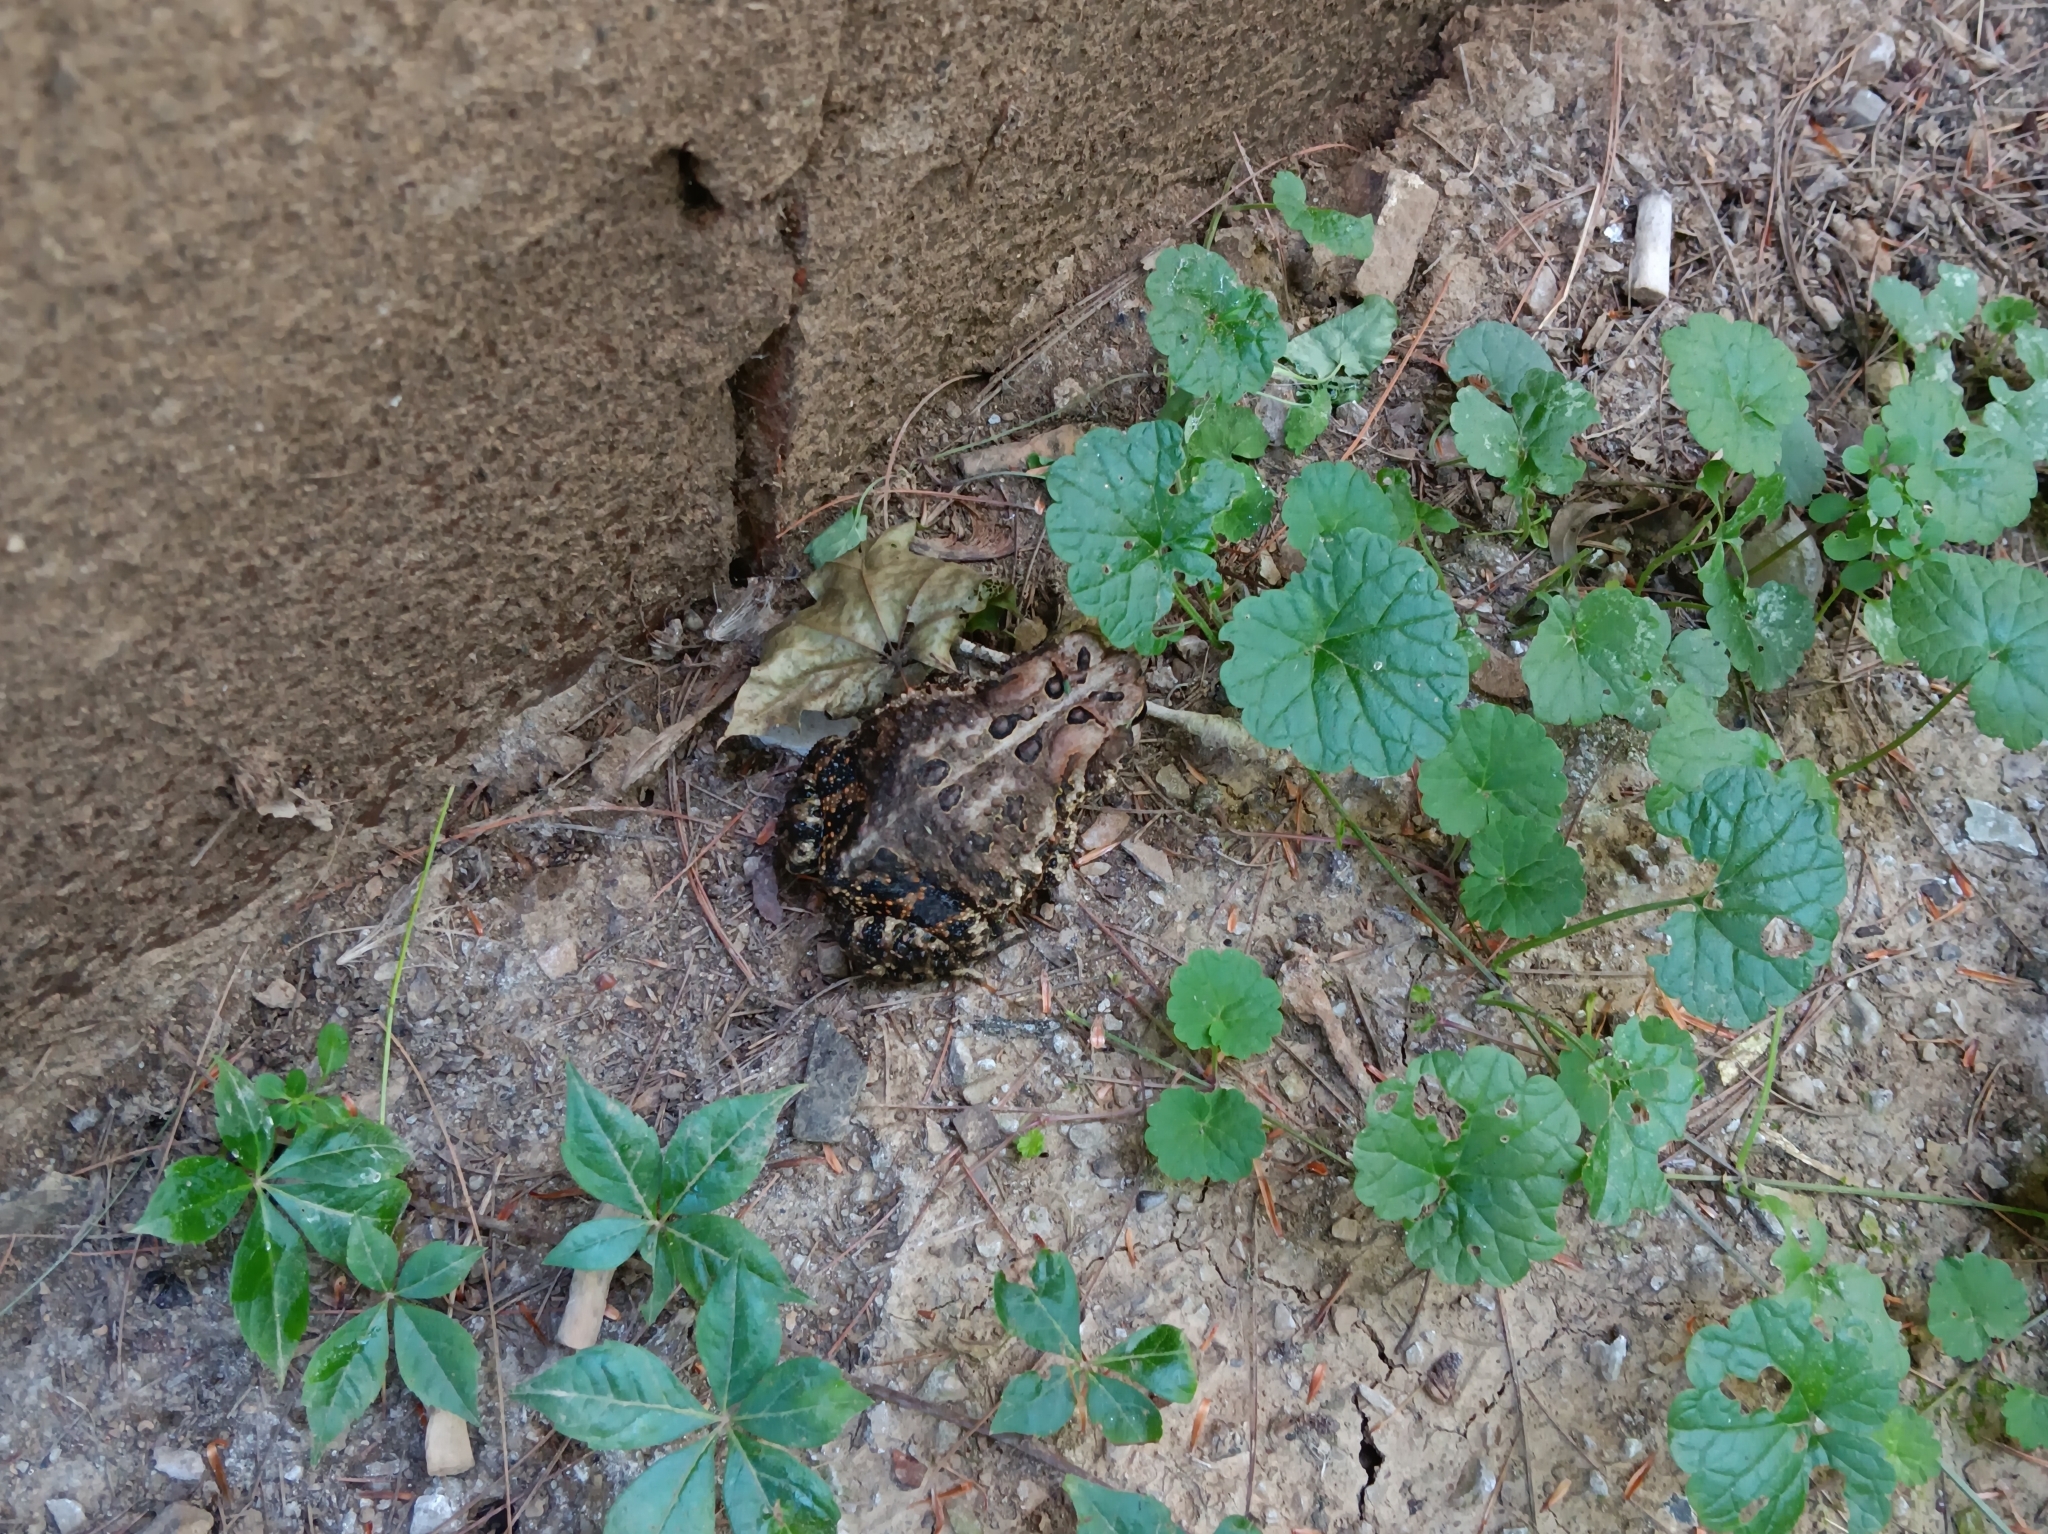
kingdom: Animalia
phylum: Chordata
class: Amphibia
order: Anura
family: Bufonidae
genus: Anaxyrus
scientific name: Anaxyrus americanus
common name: American toad
